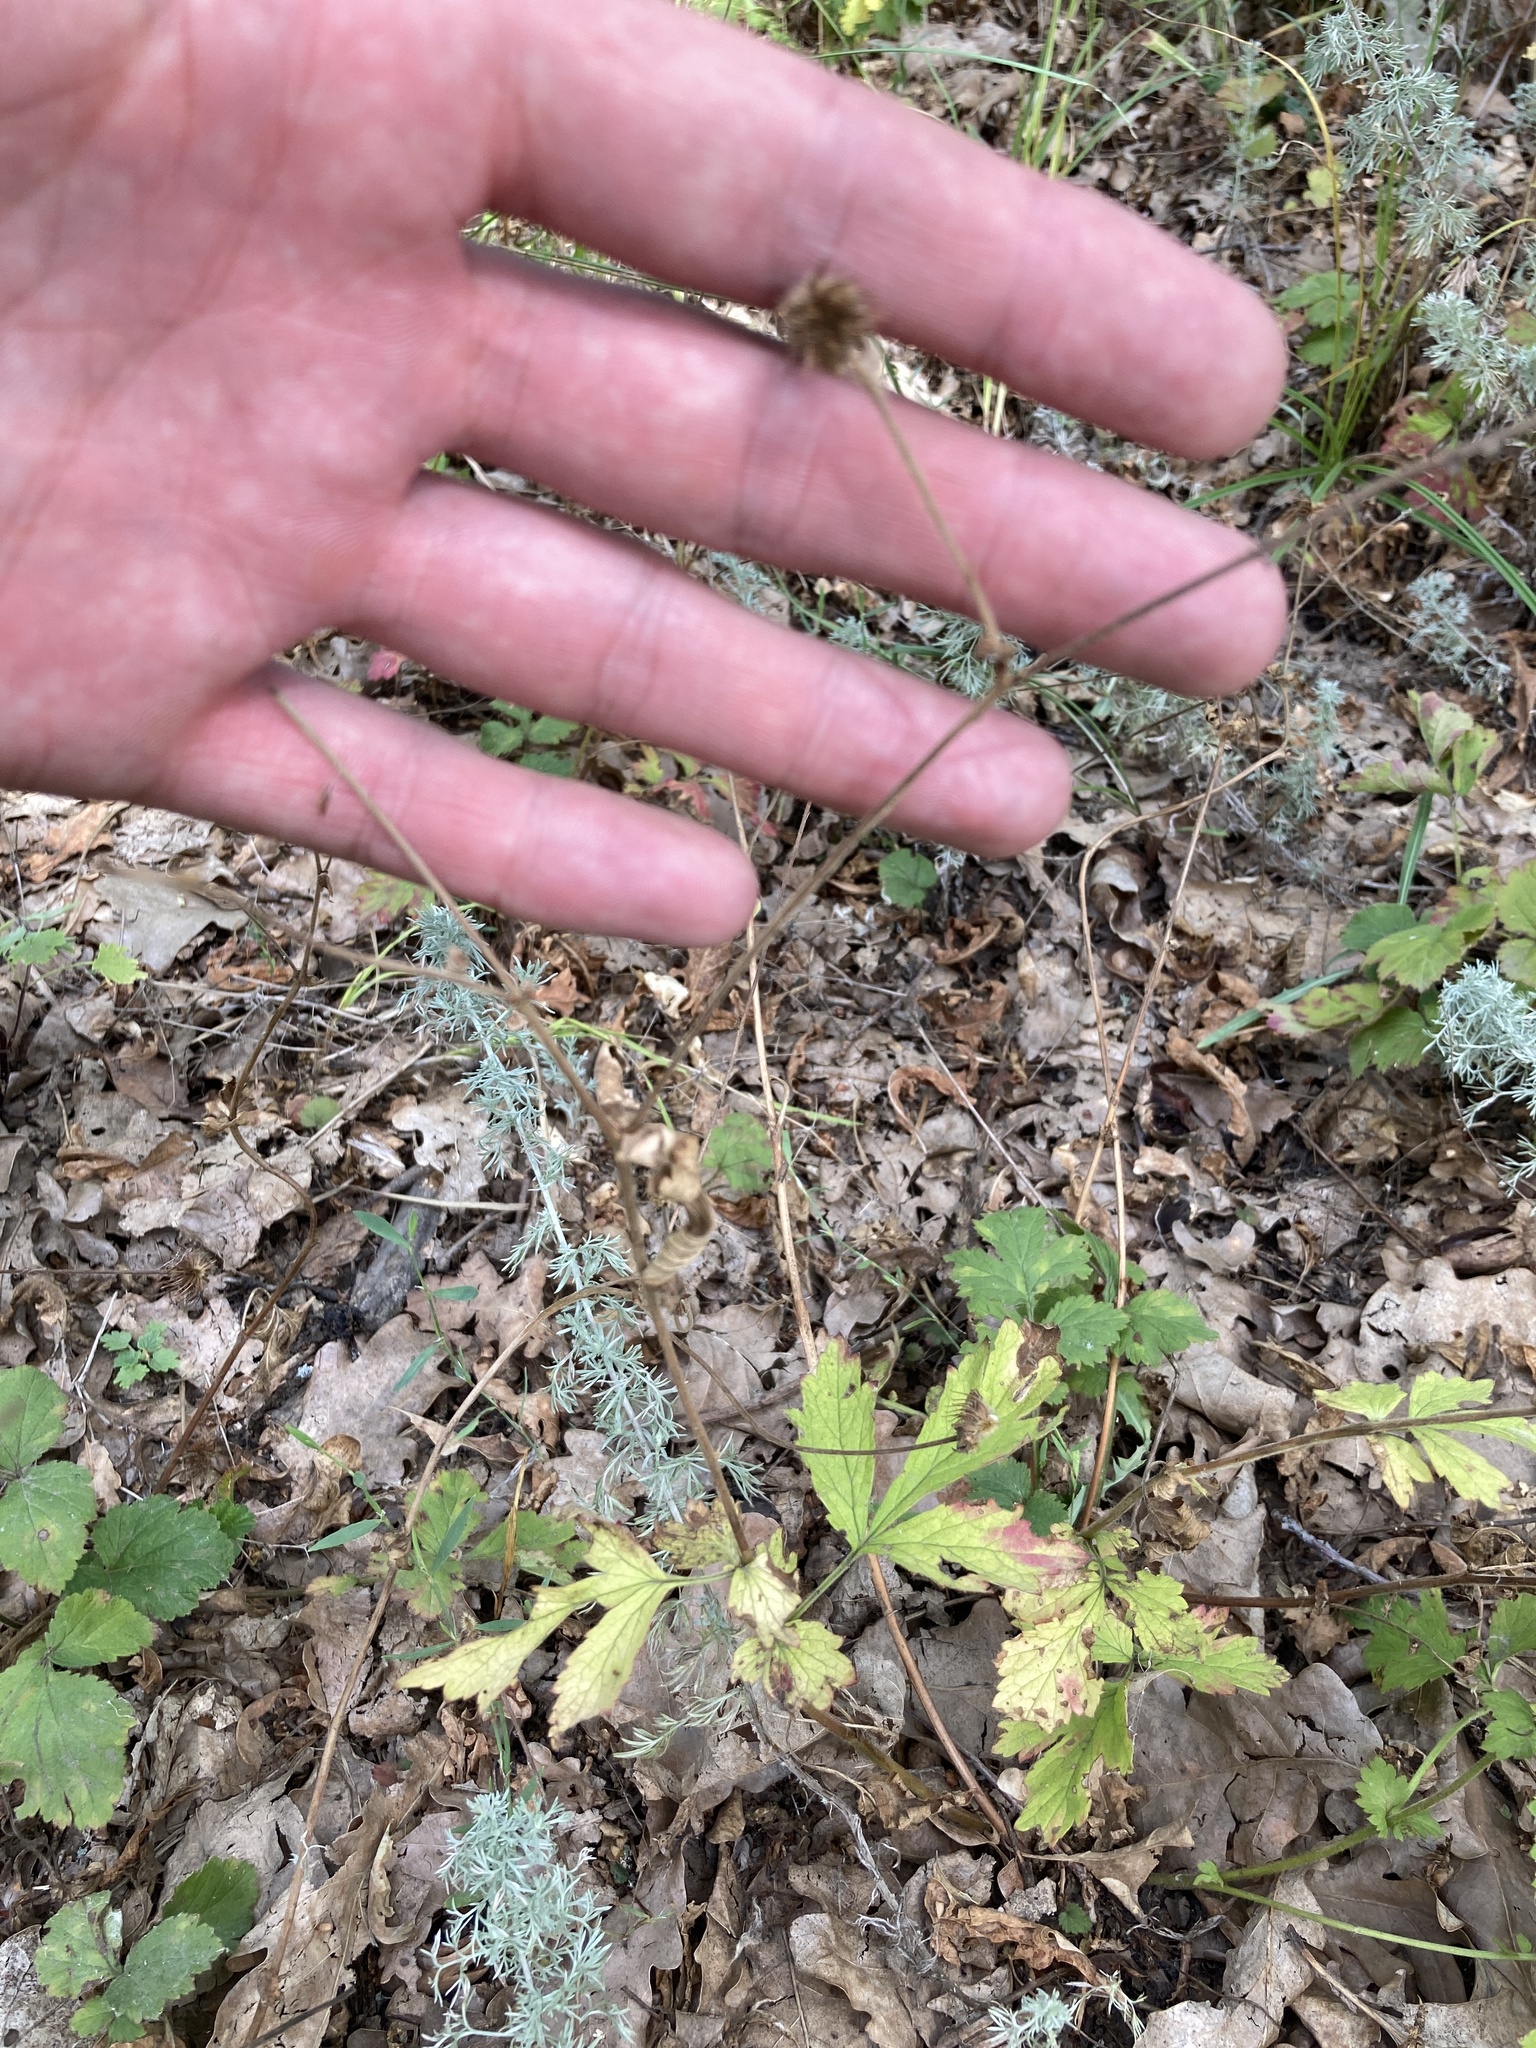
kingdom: Plantae
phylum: Tracheophyta
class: Magnoliopsida
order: Rosales
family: Rosaceae
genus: Geum
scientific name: Geum urbanum
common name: Wood avens
